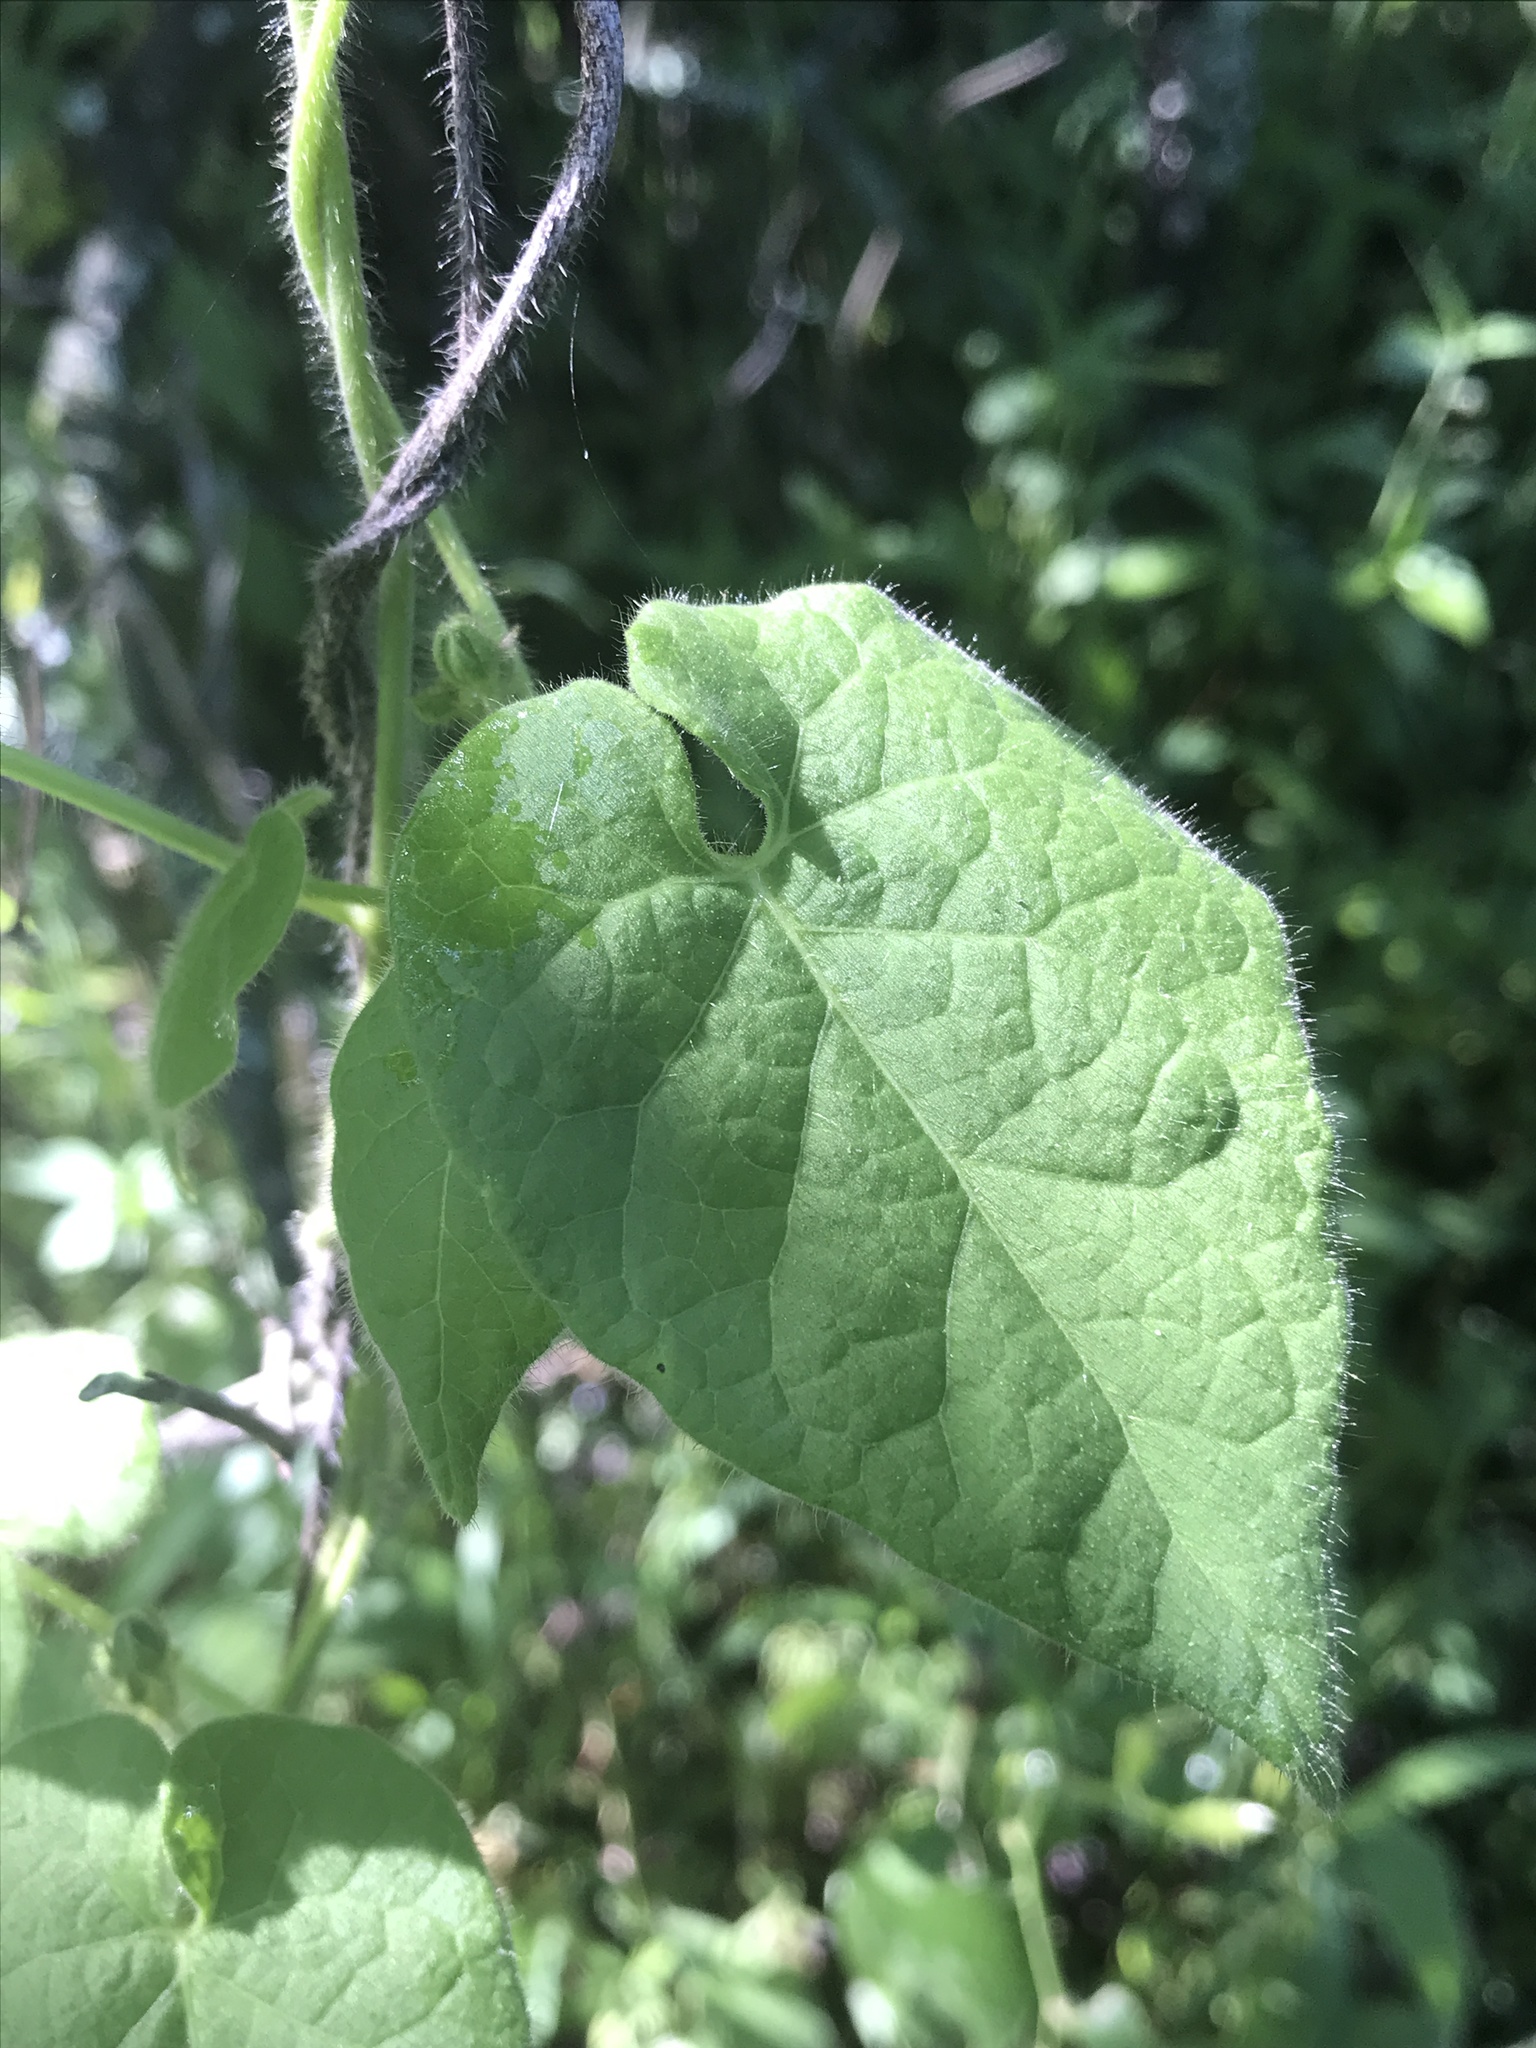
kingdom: Plantae
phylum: Tracheophyta
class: Magnoliopsida
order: Gentianales
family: Apocynaceae
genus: Dictyanthus
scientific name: Dictyanthus reticulatus
